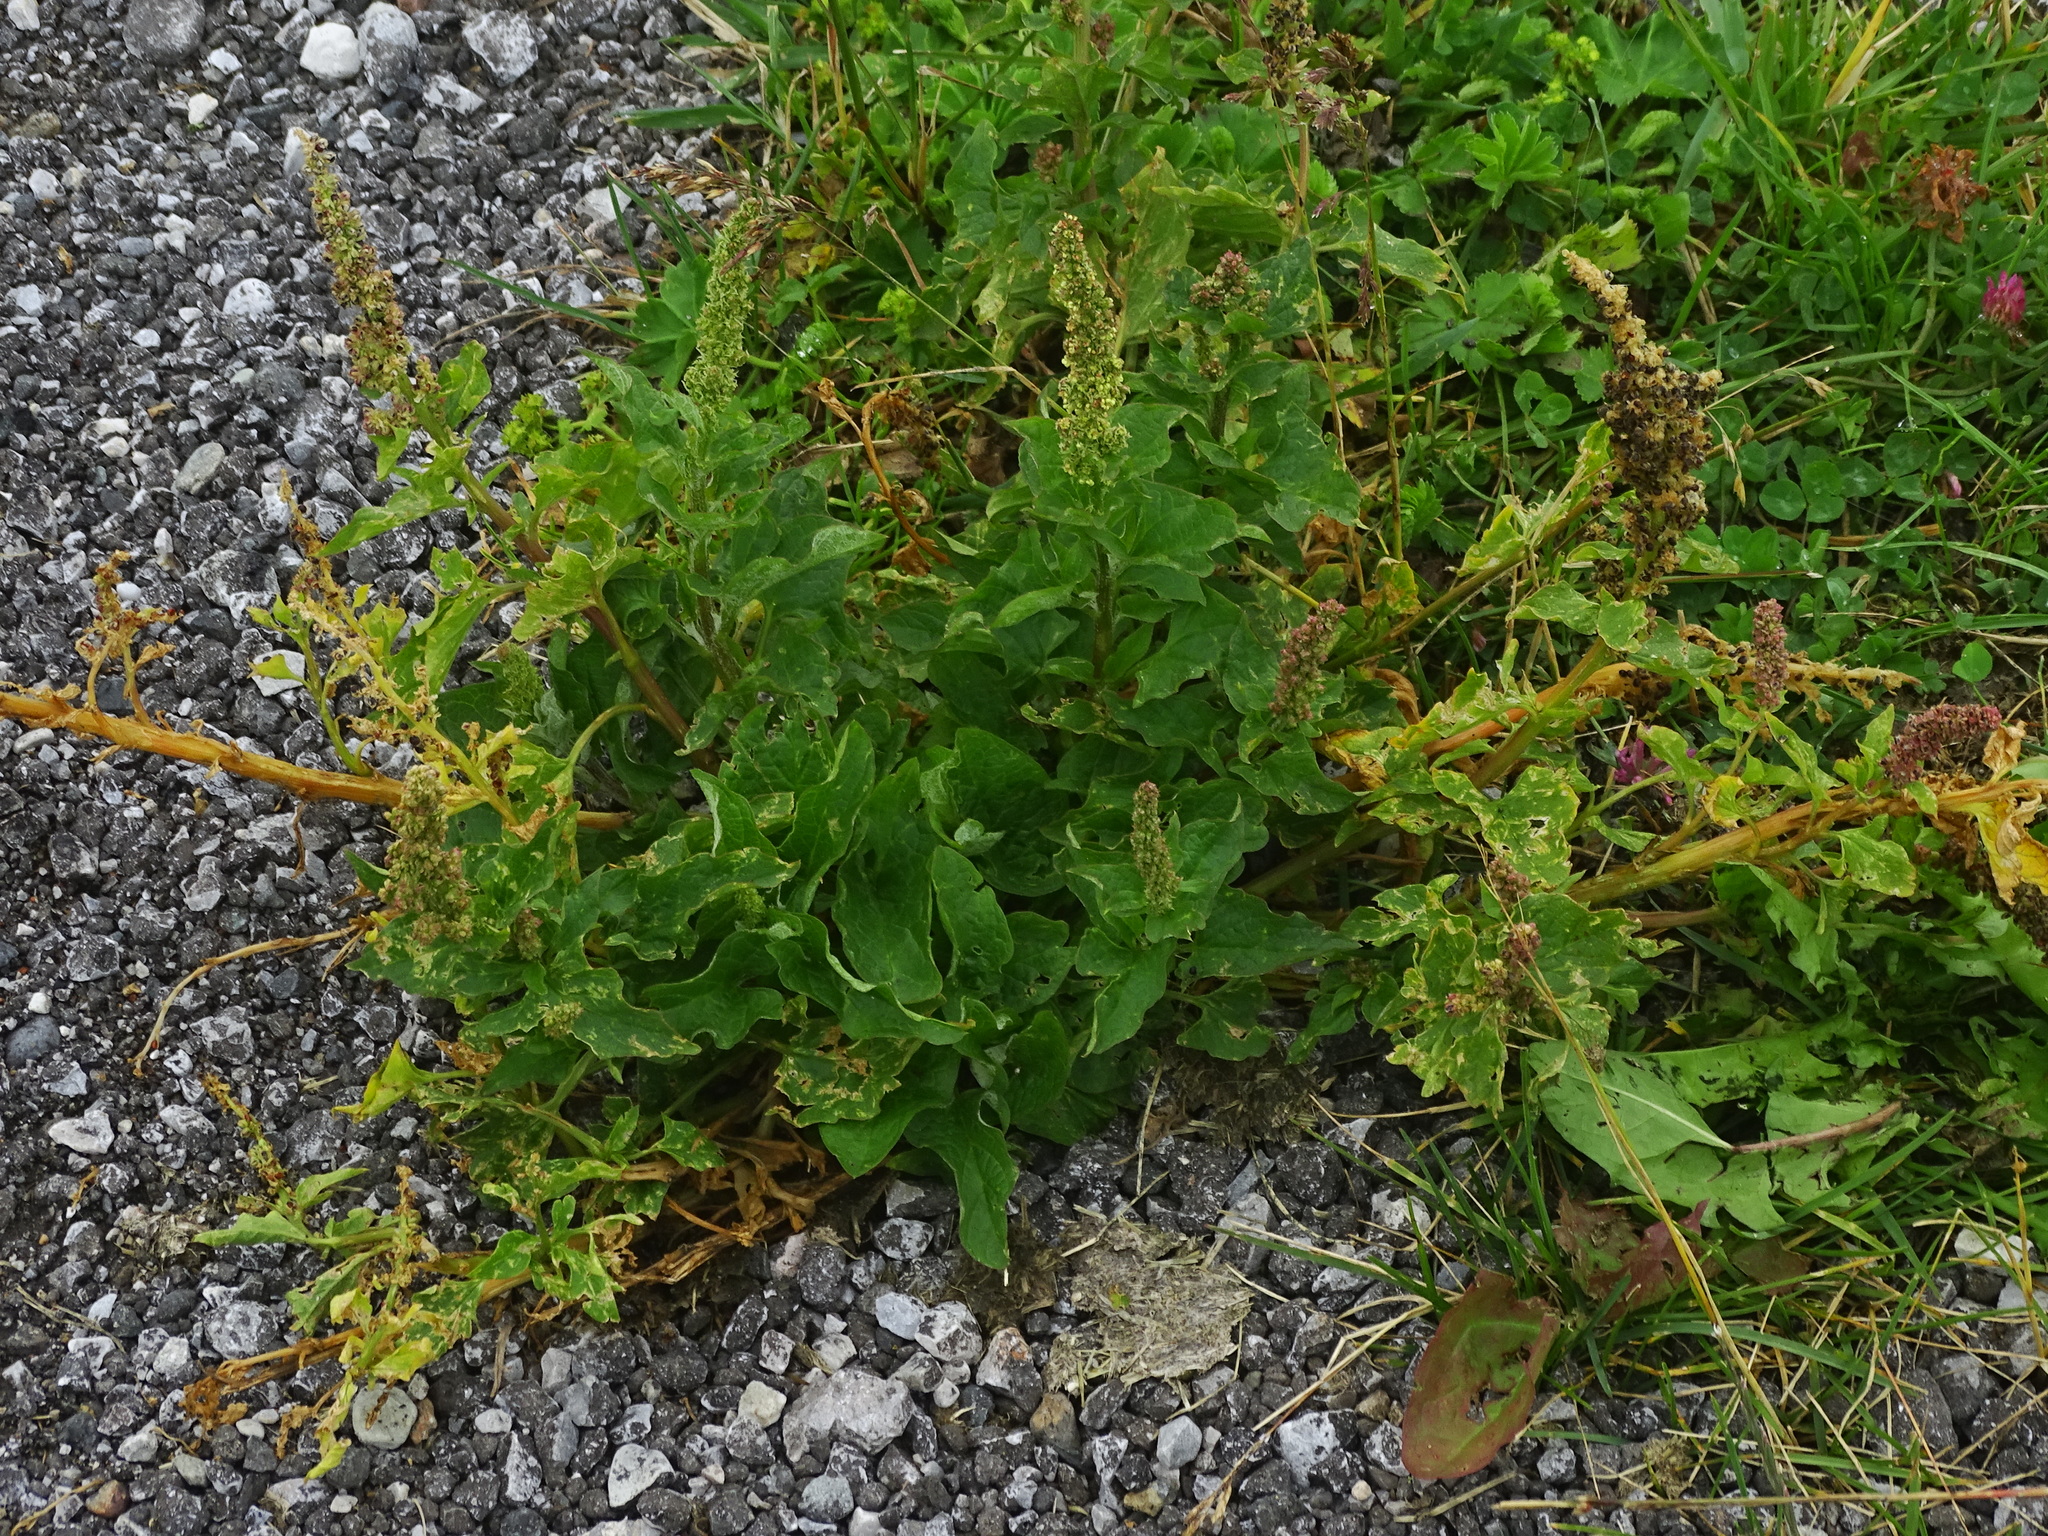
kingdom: Plantae
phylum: Tracheophyta
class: Magnoliopsida
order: Caryophyllales
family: Amaranthaceae
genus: Blitum
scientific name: Blitum bonus-henricus
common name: Good king henry
